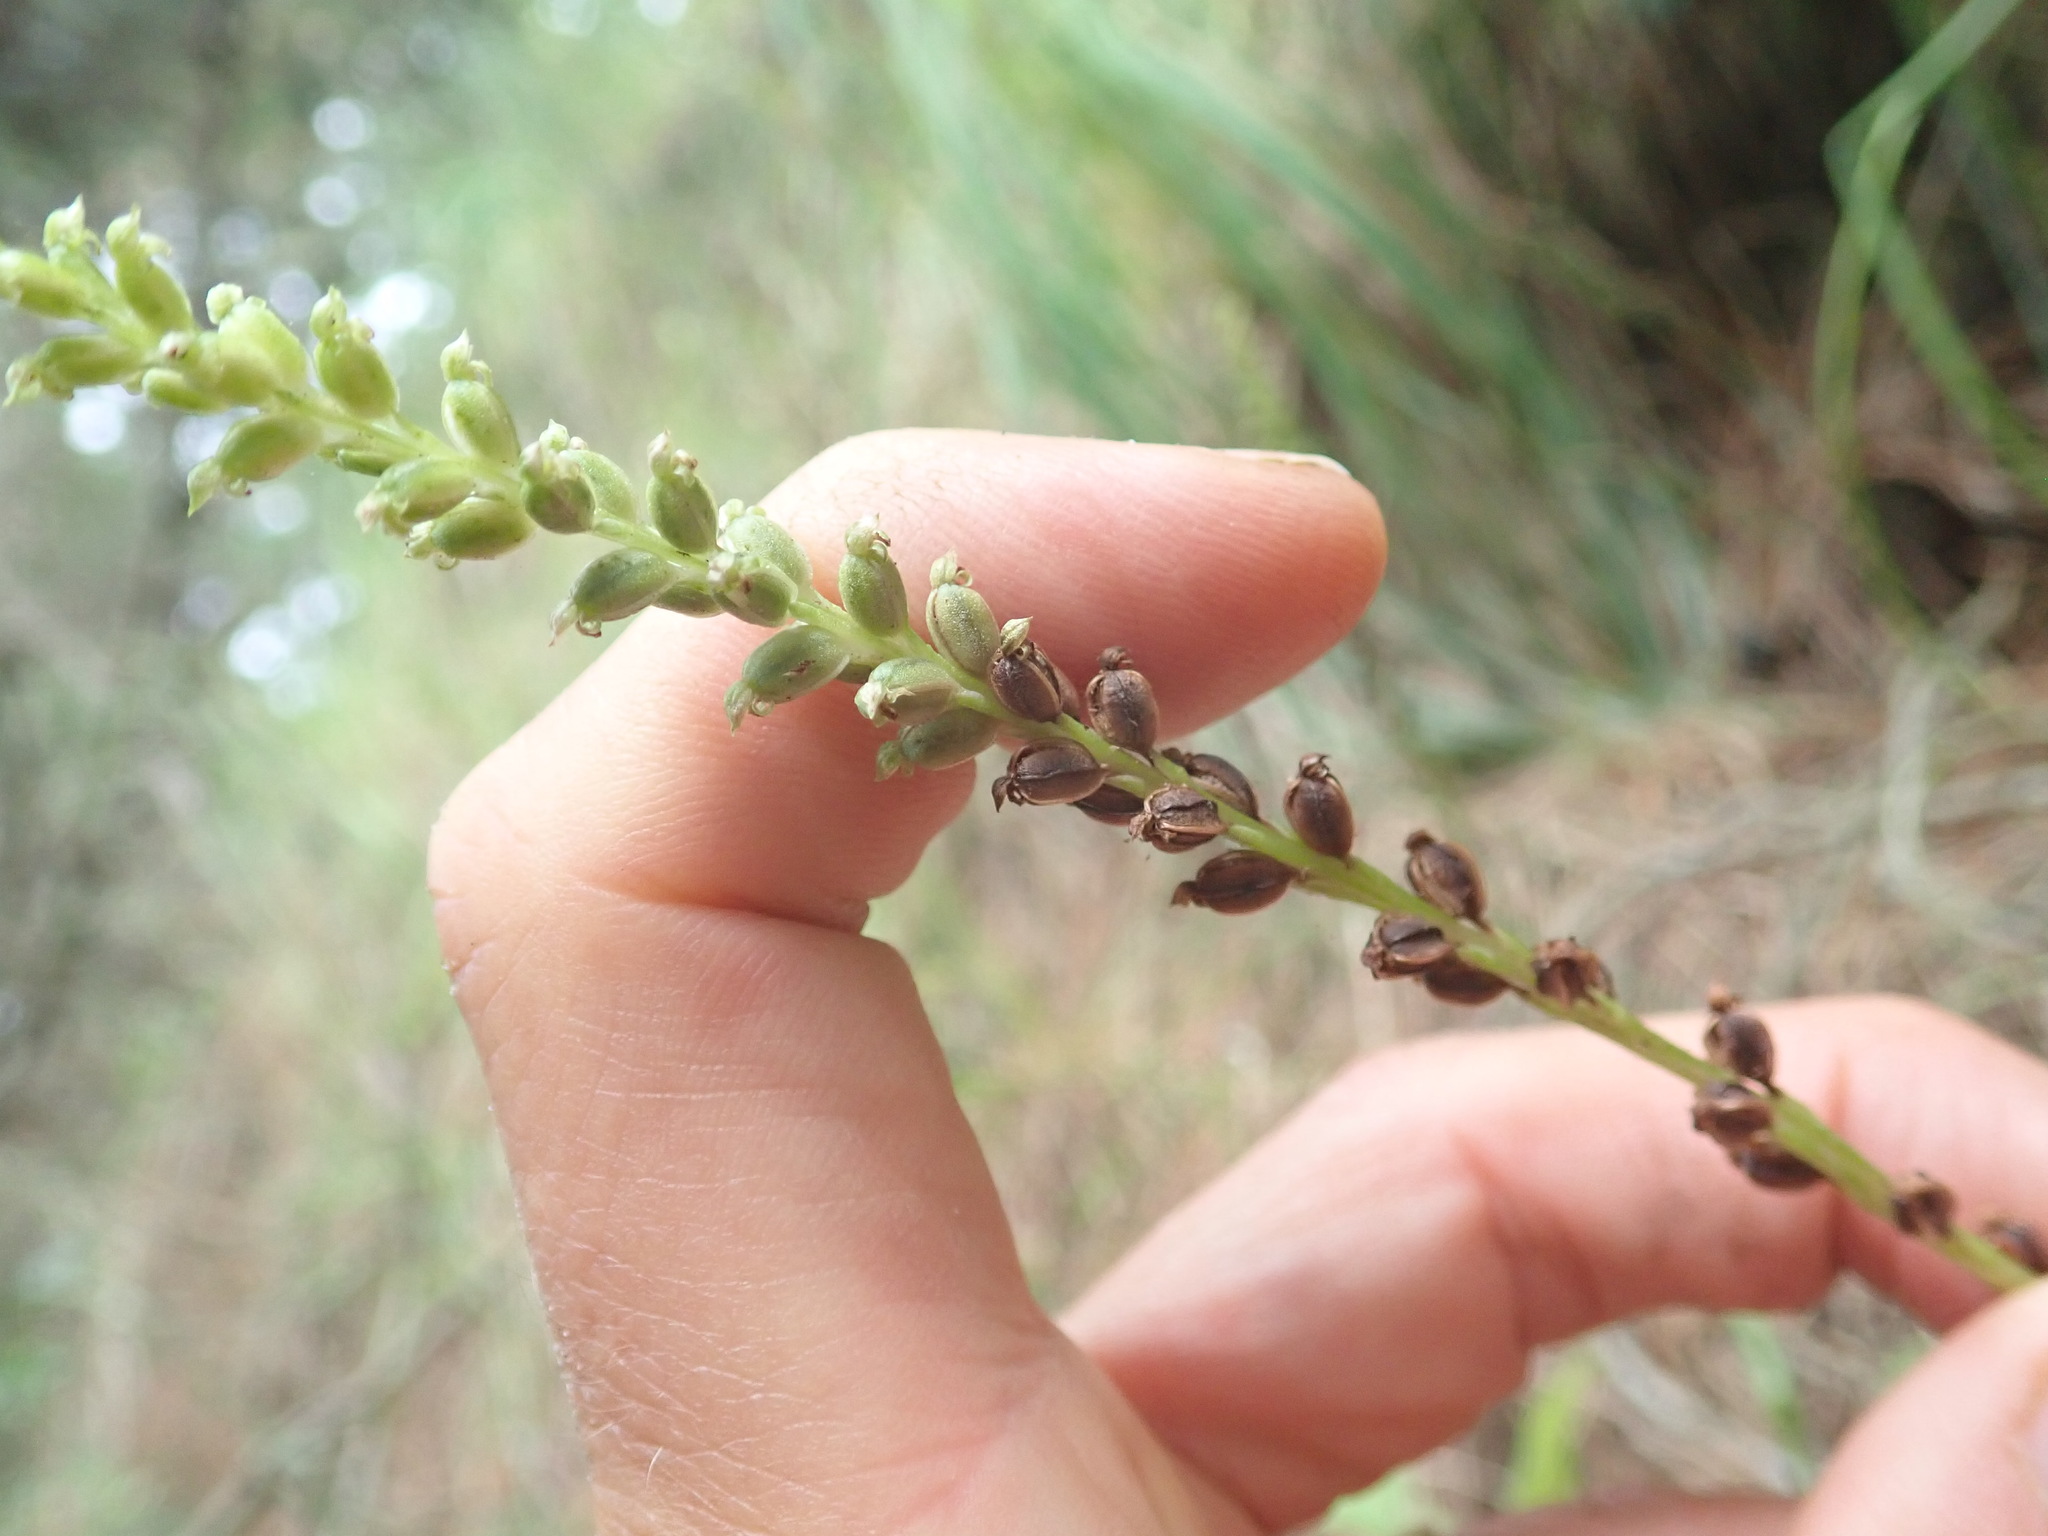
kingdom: Plantae
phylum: Tracheophyta
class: Liliopsida
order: Asparagales
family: Orchidaceae
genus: Microtis
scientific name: Microtis unifolia
